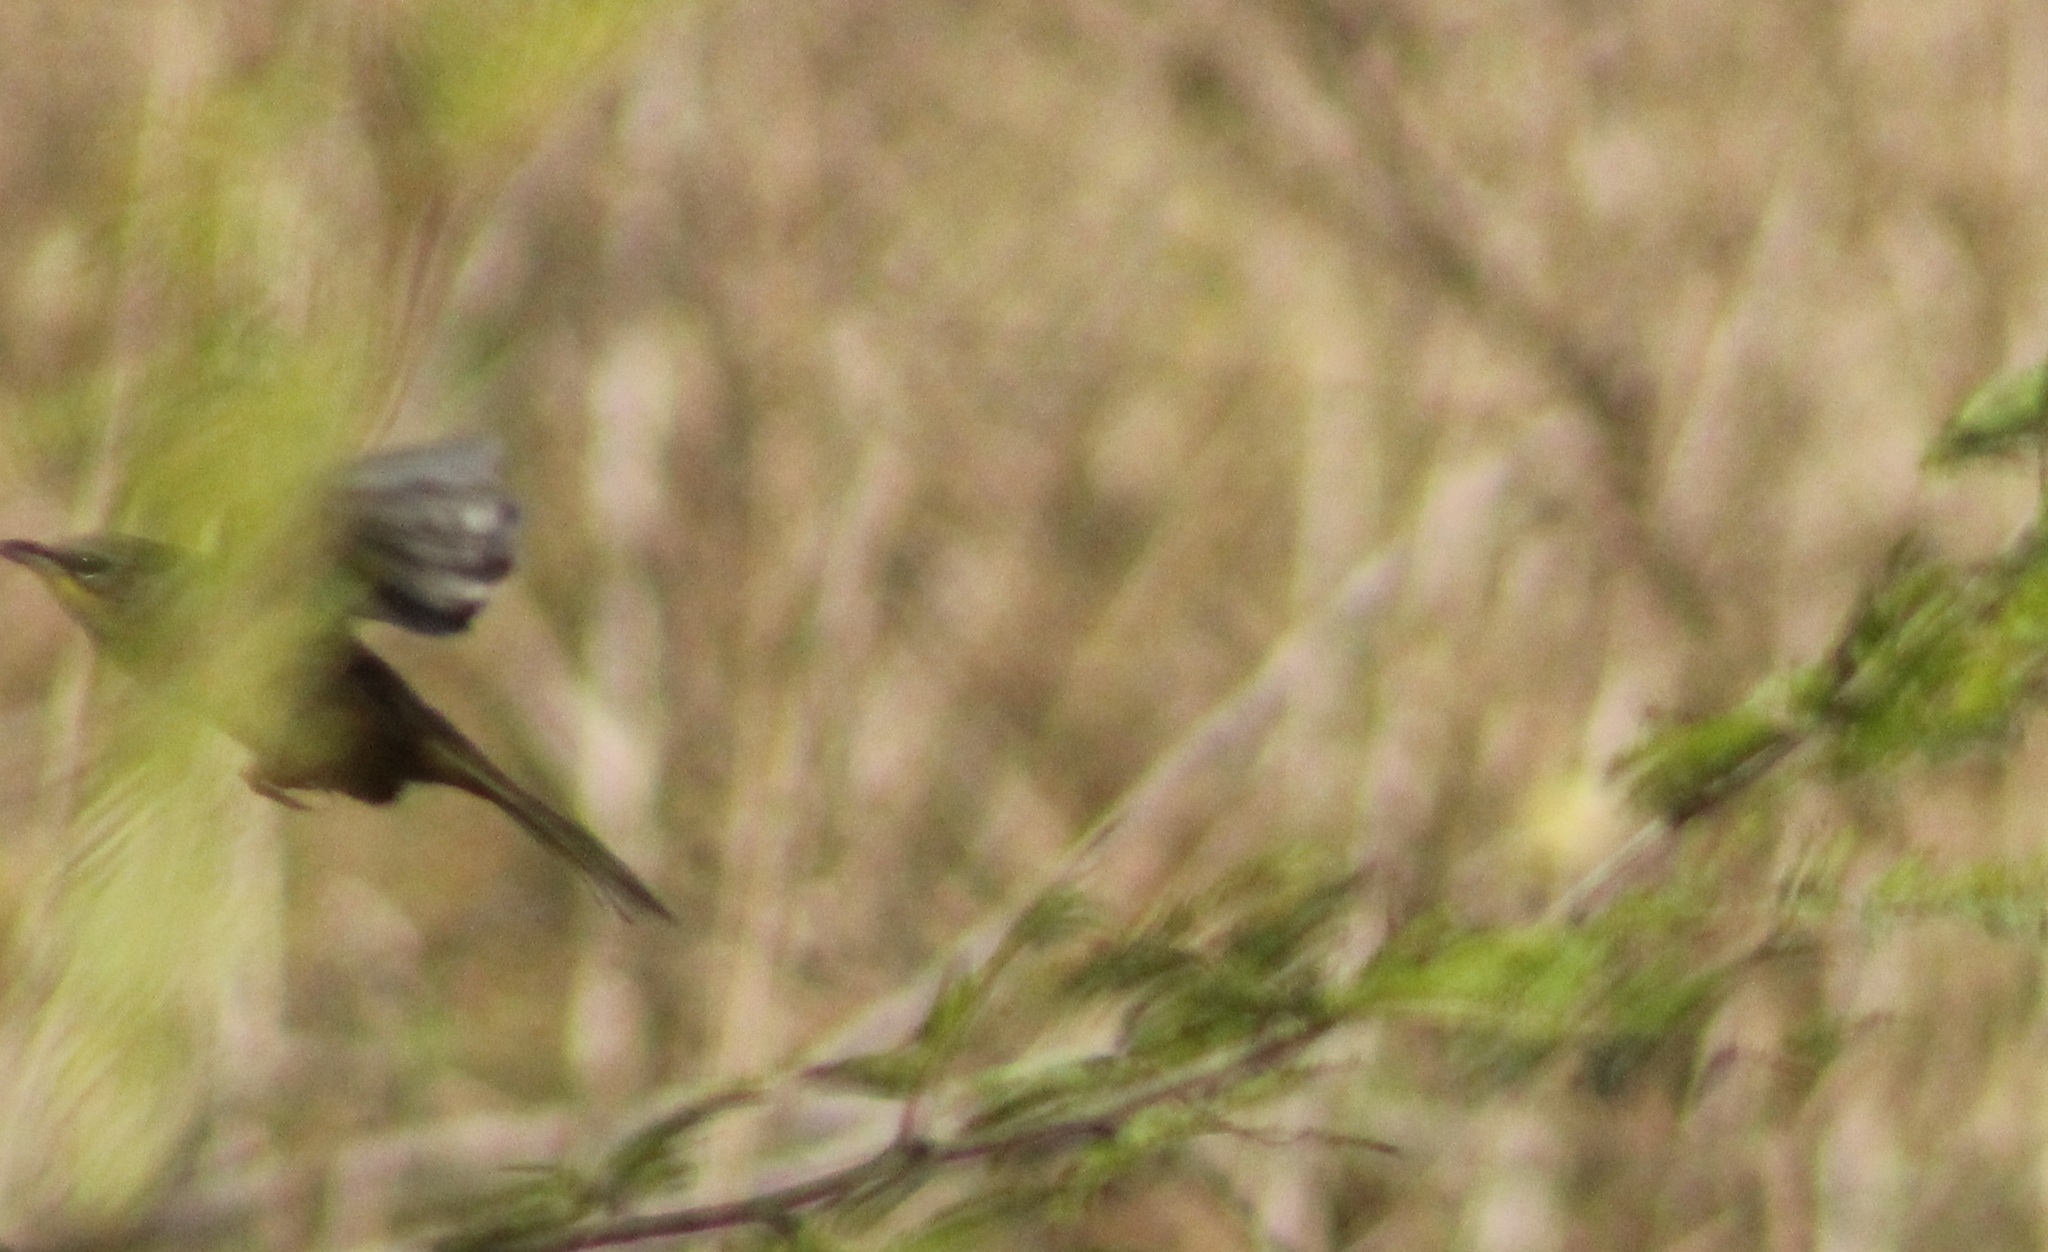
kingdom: Animalia
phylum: Chordata
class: Aves
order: Passeriformes
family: Parulidae
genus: Geothlypis
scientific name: Geothlypis poliocephala
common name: Gray-crowned yellowthroat
